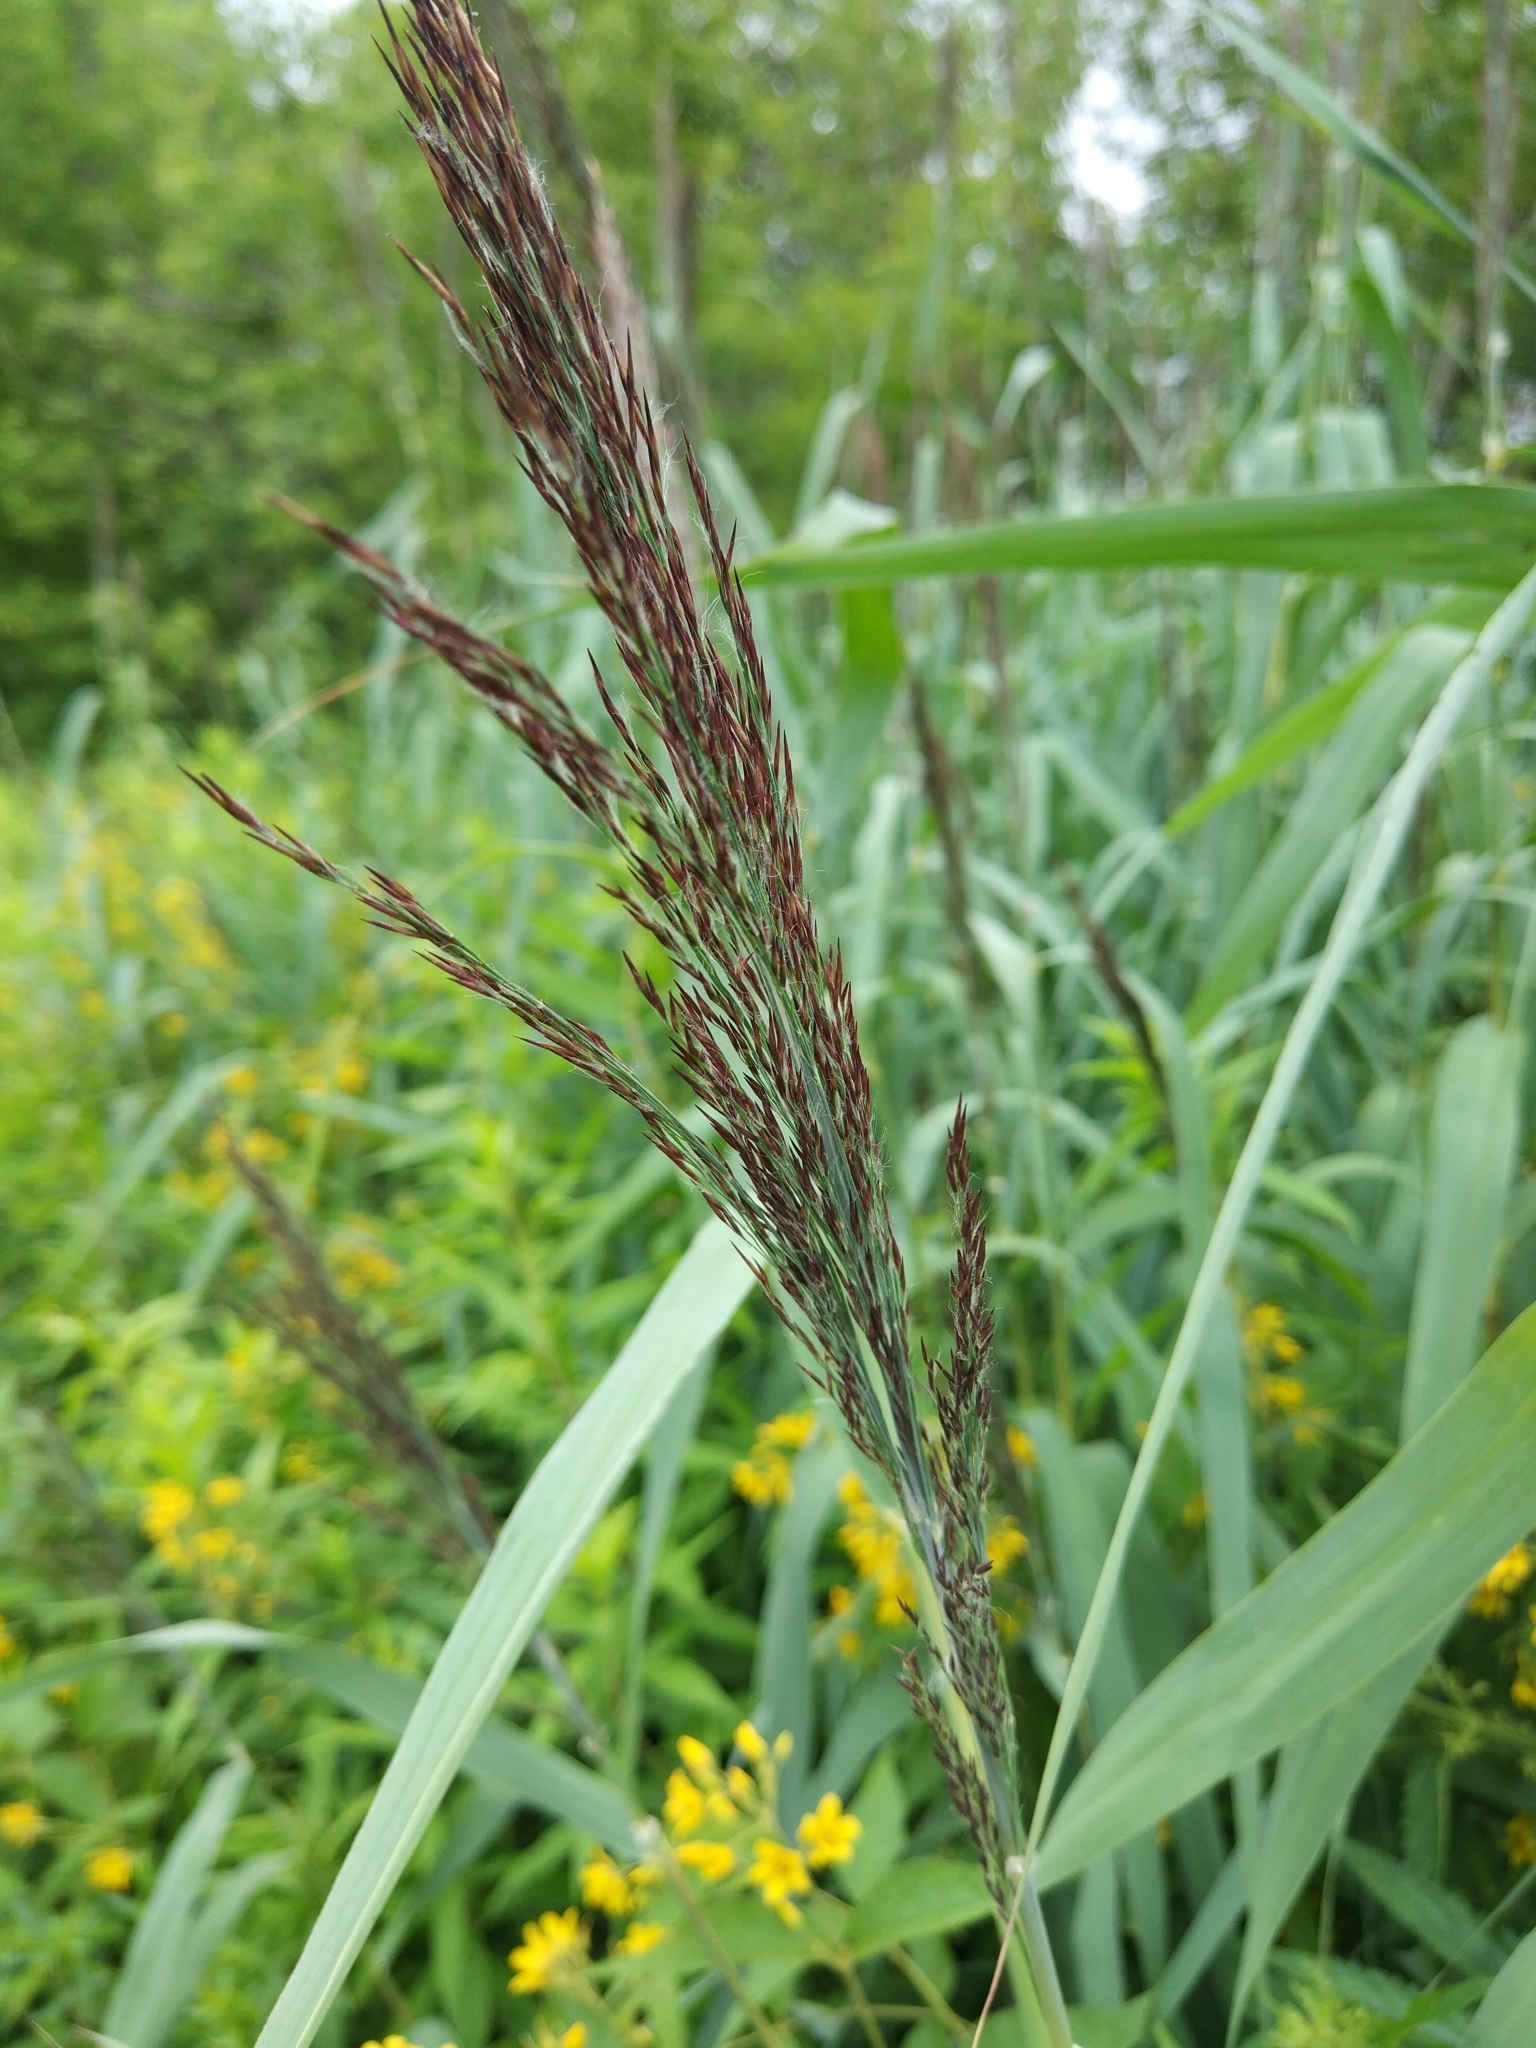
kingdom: Plantae
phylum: Tracheophyta
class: Liliopsida
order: Poales
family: Poaceae
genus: Phragmites
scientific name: Phragmites australis
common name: Common reed
